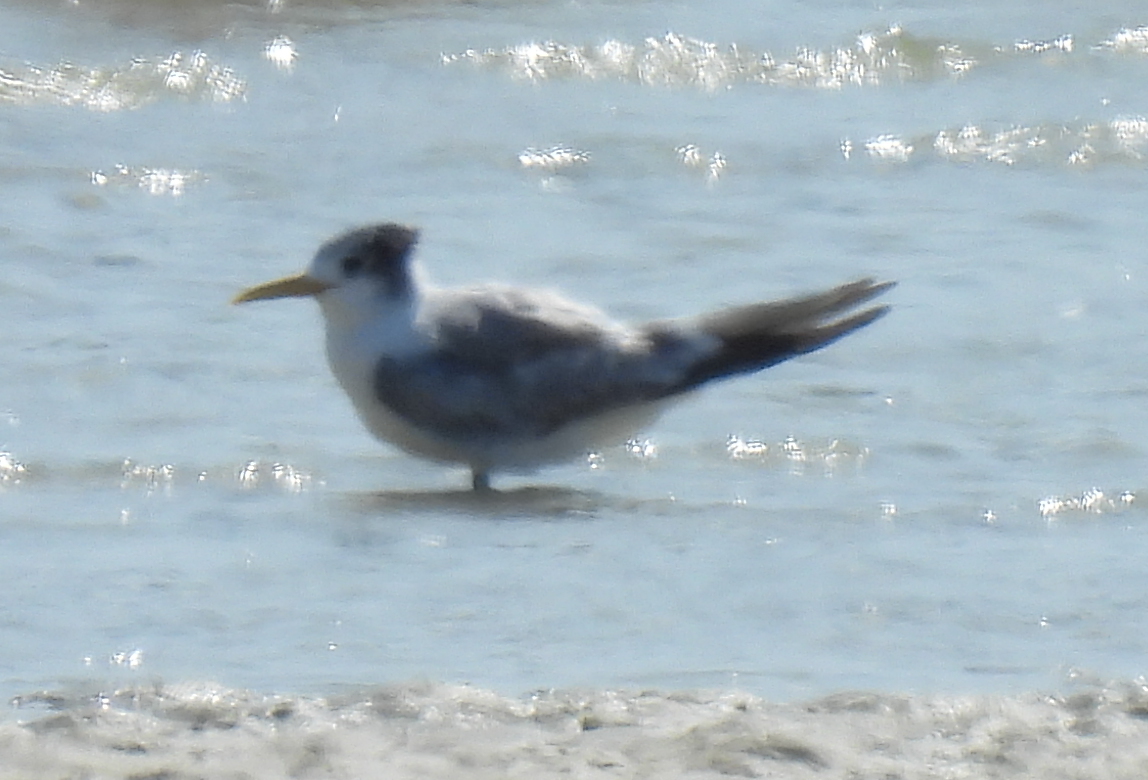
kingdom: Animalia
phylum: Chordata
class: Aves
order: Charadriiformes
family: Laridae
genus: Thalasseus
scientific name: Thalasseus bergii
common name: Greater crested tern
